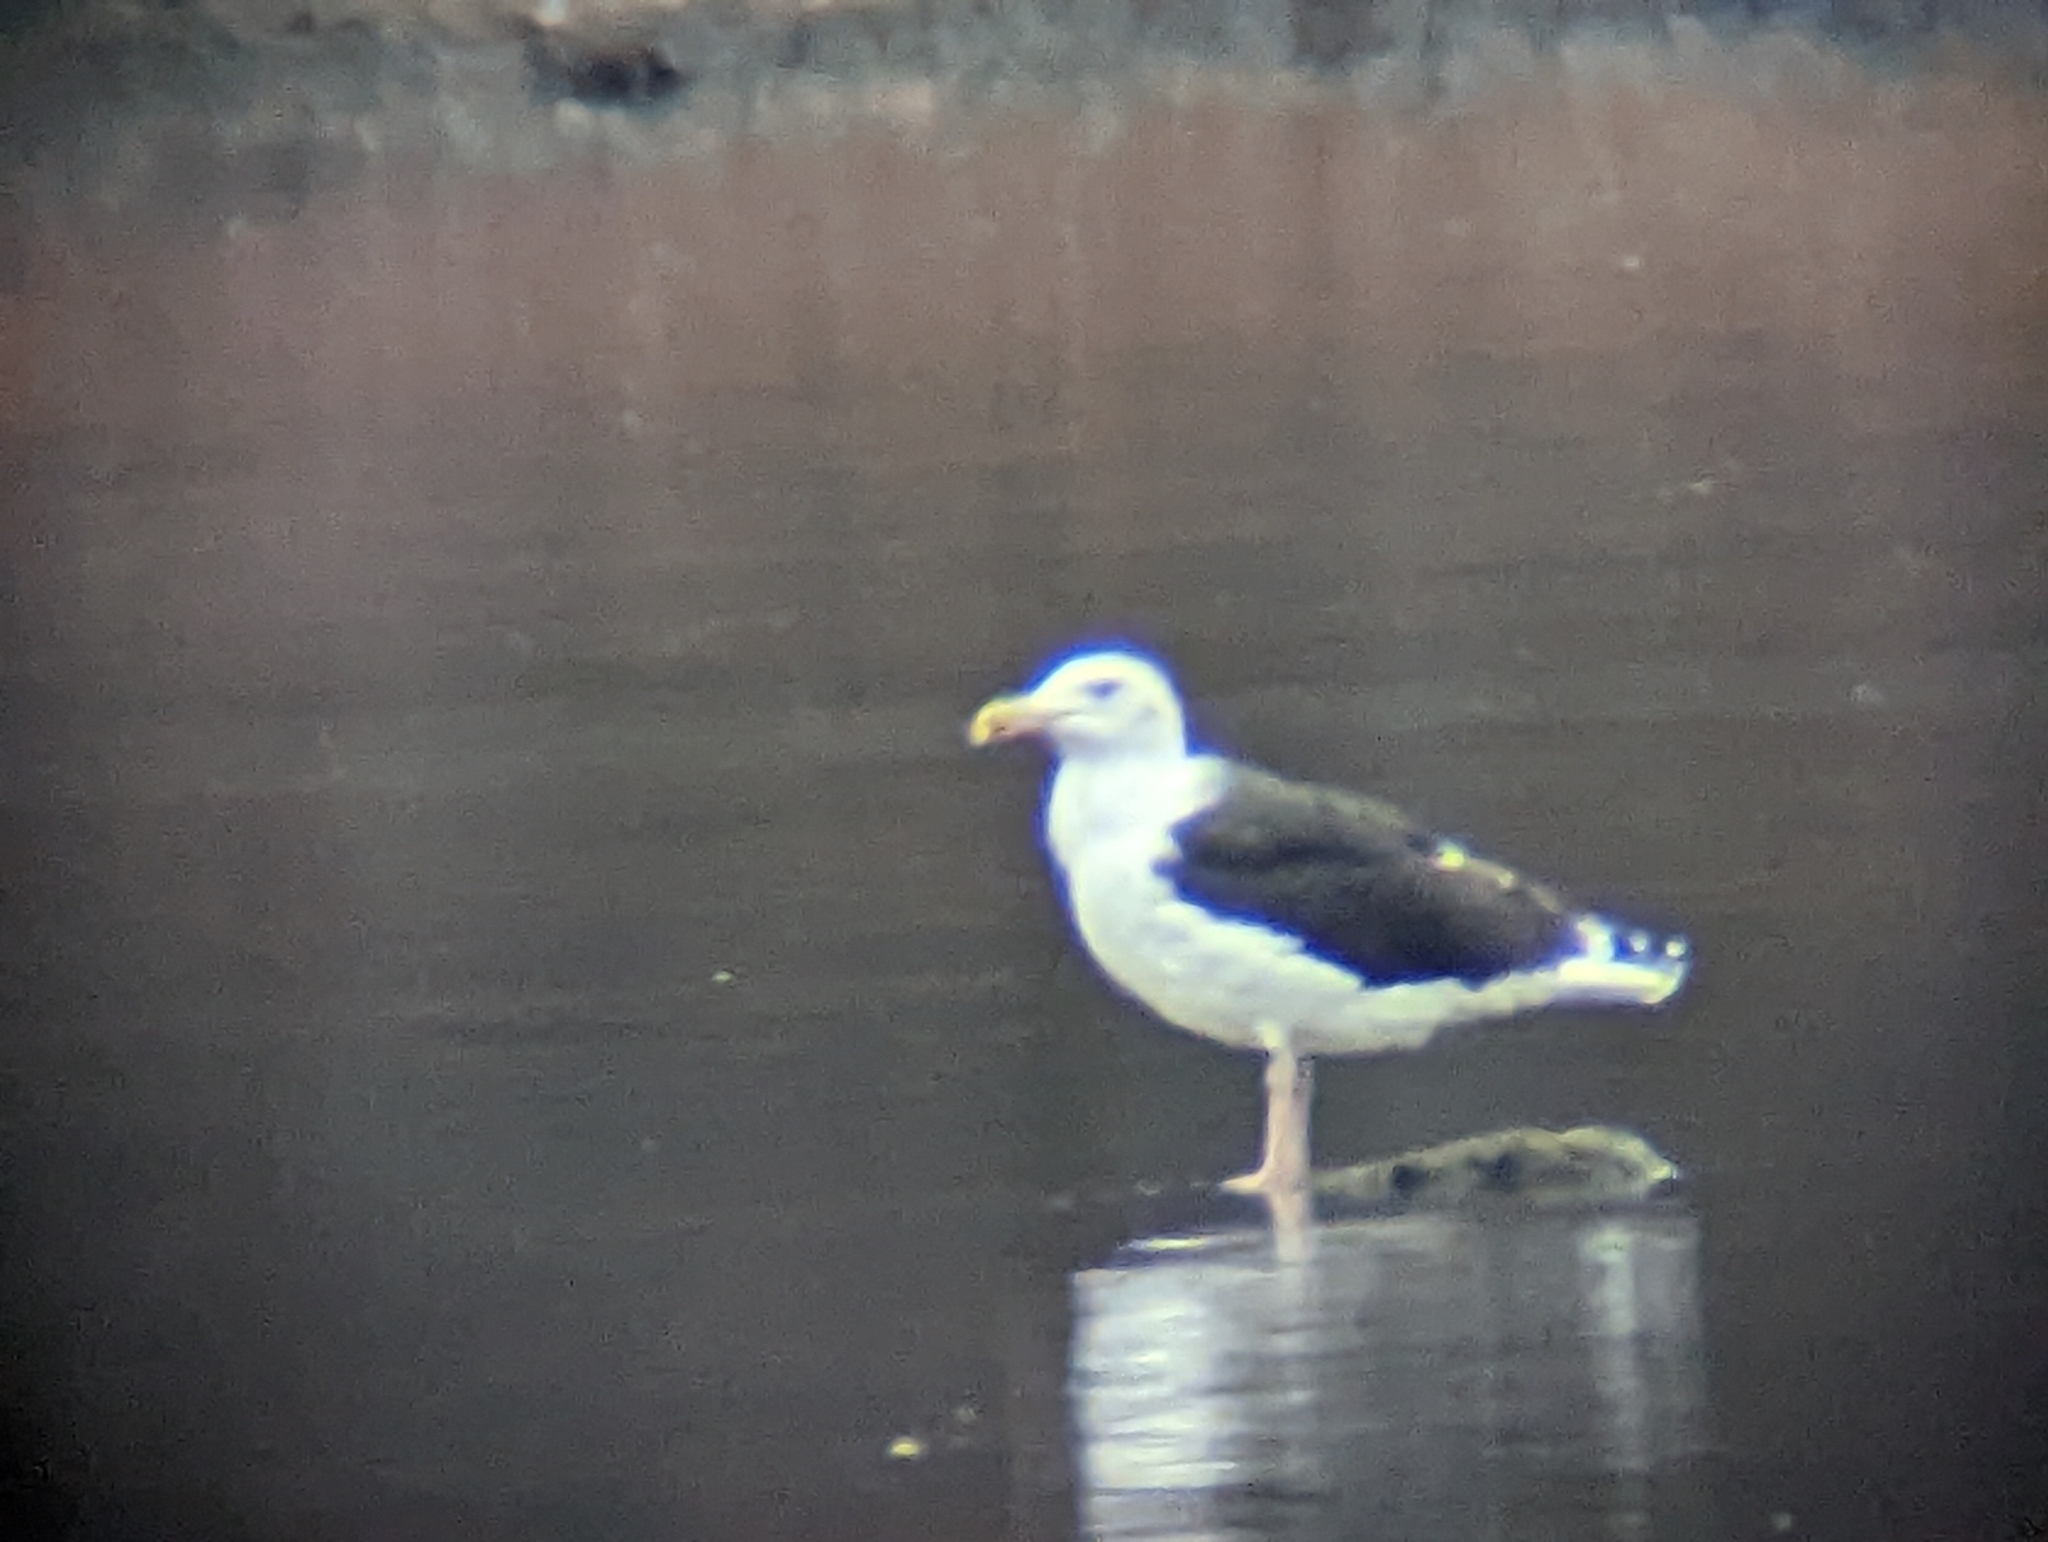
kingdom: Animalia
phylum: Chordata
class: Aves
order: Charadriiformes
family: Laridae
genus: Larus
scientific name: Larus marinus
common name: Great black-backed gull
